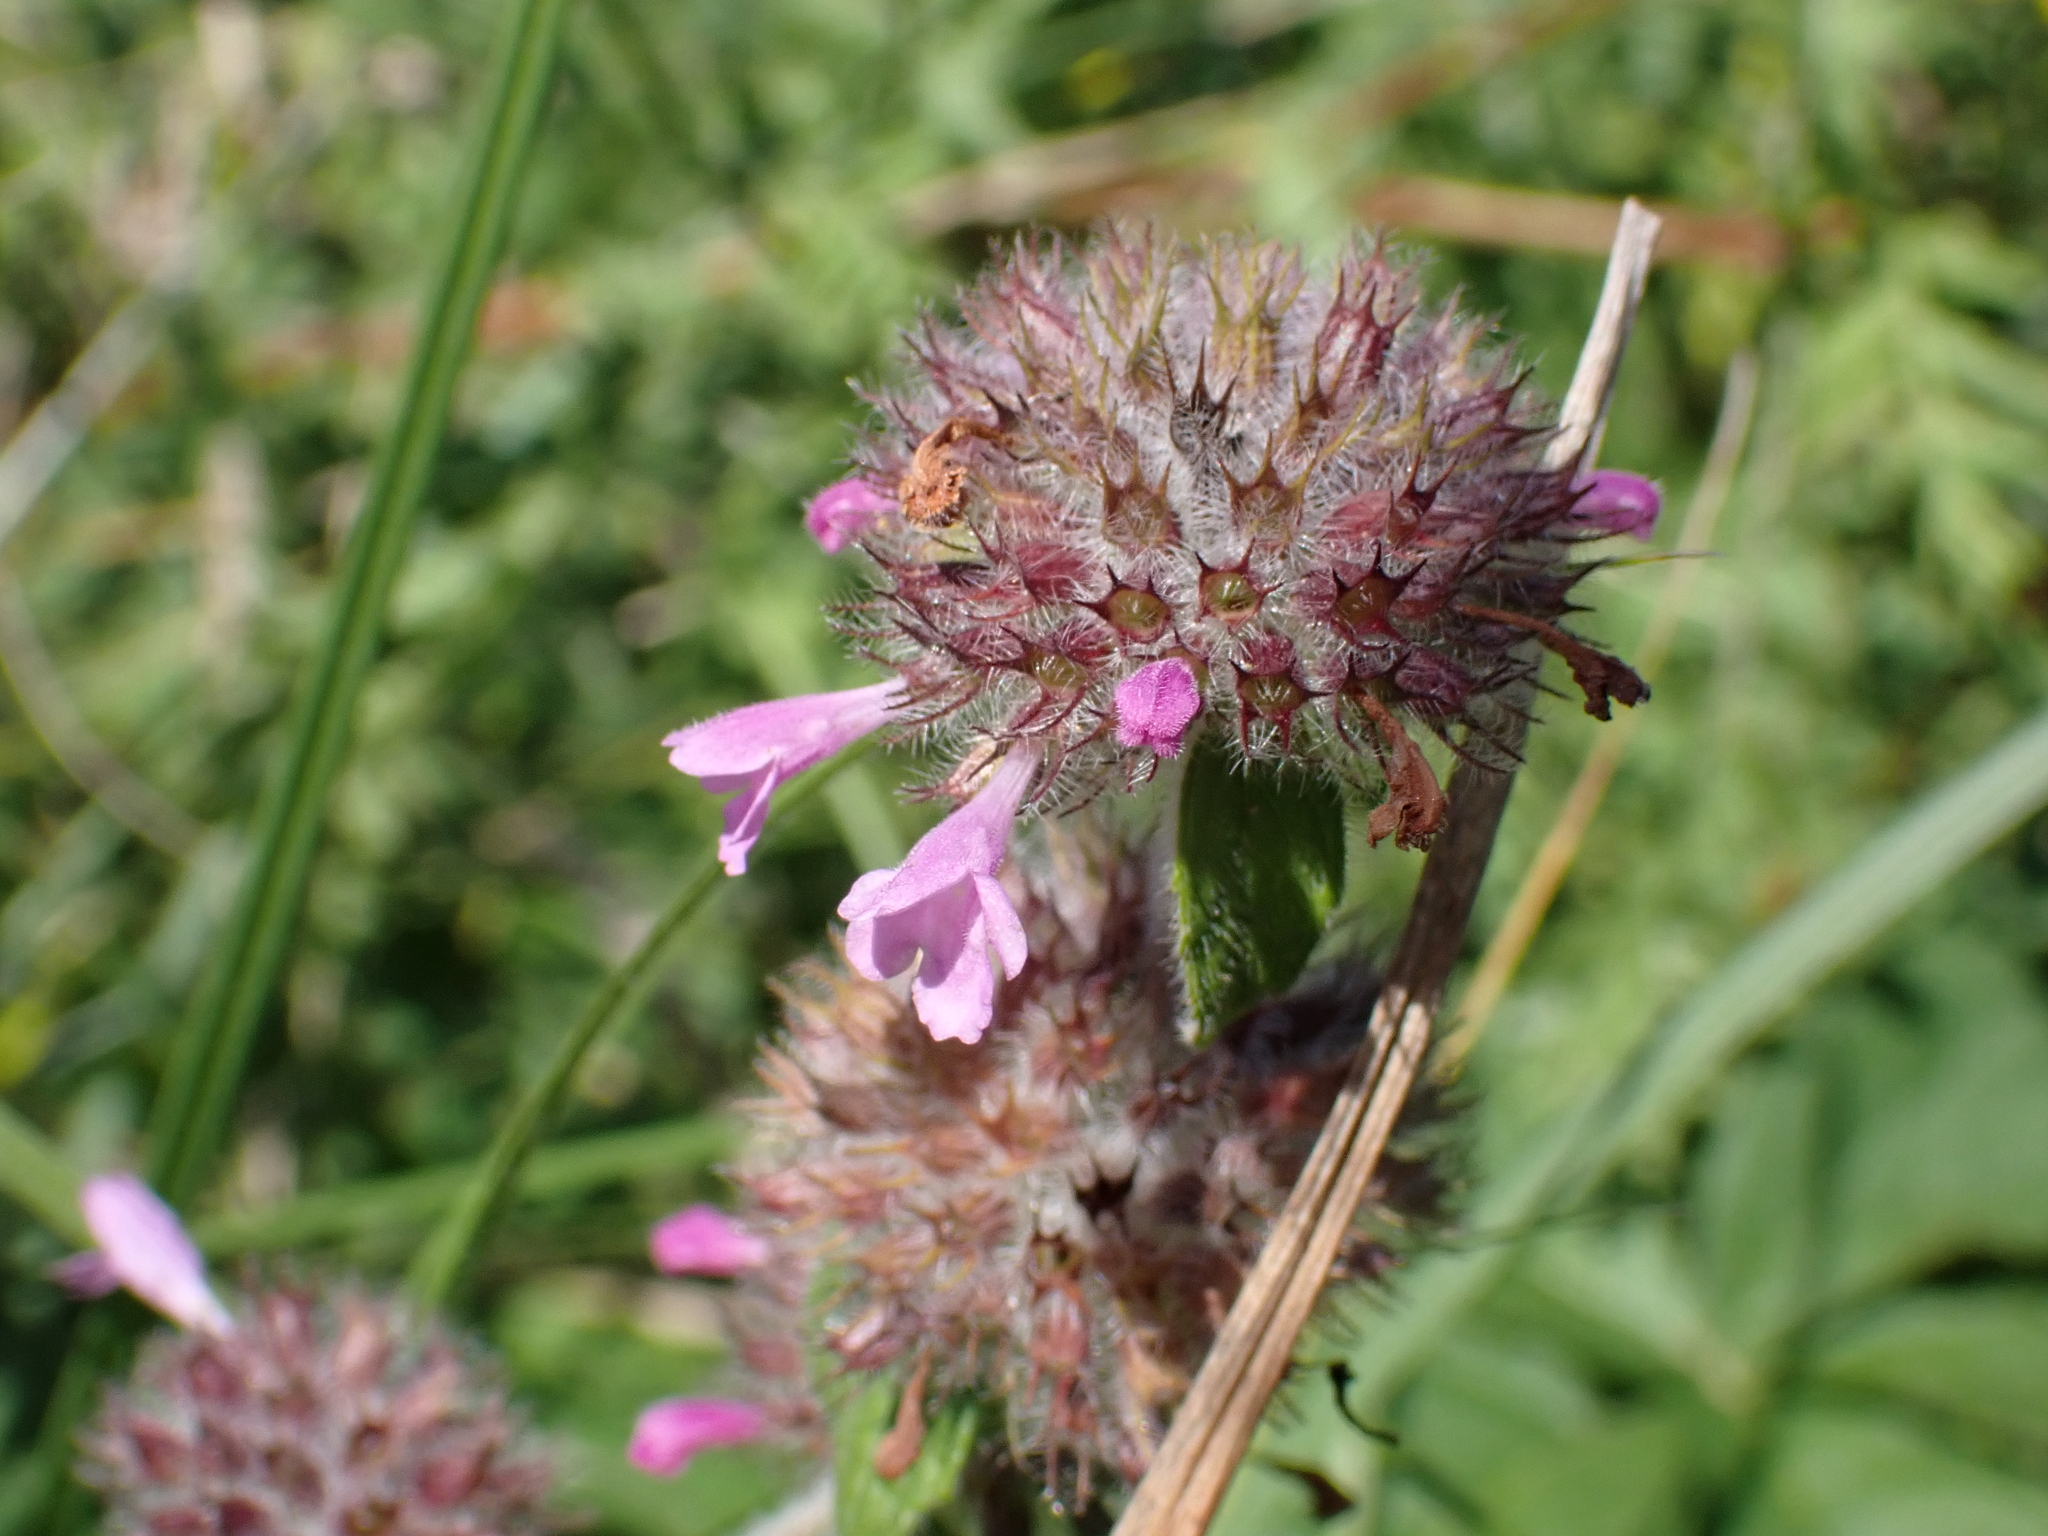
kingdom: Plantae
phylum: Tracheophyta
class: Magnoliopsida
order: Lamiales
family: Lamiaceae
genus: Clinopodium
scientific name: Clinopodium vulgare
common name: Wild basil
